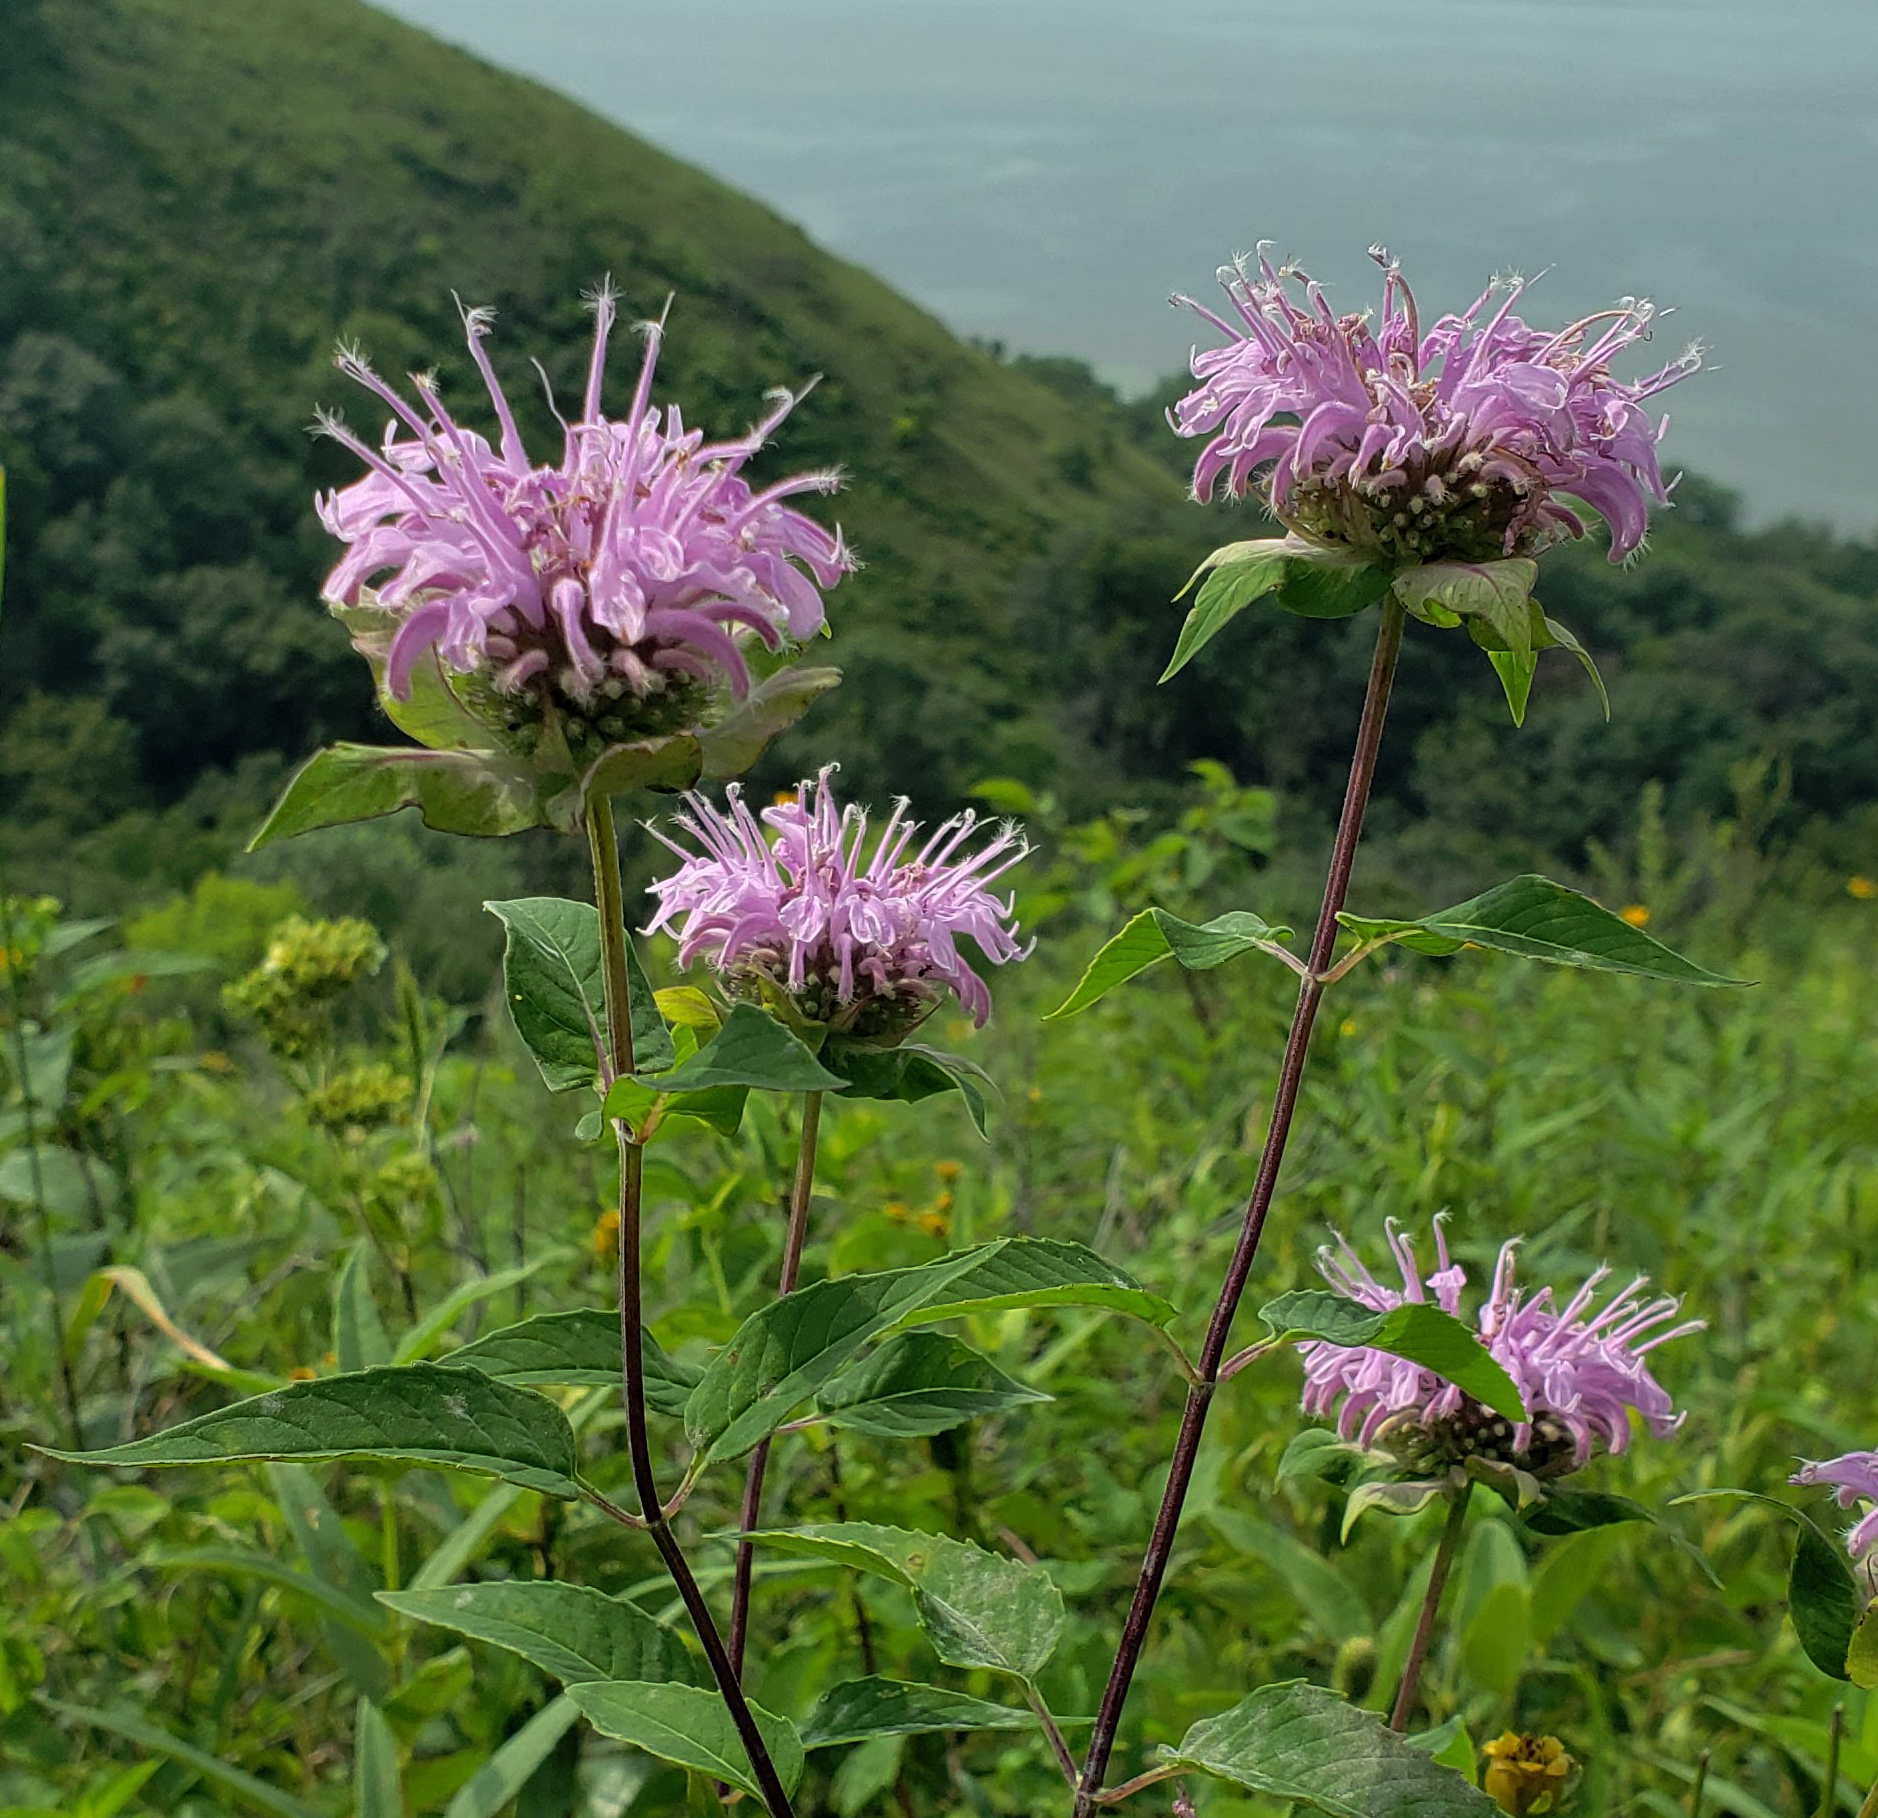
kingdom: Plantae
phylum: Tracheophyta
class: Magnoliopsida
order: Lamiales
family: Lamiaceae
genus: Monarda
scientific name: Monarda fistulosa
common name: Purple beebalm
